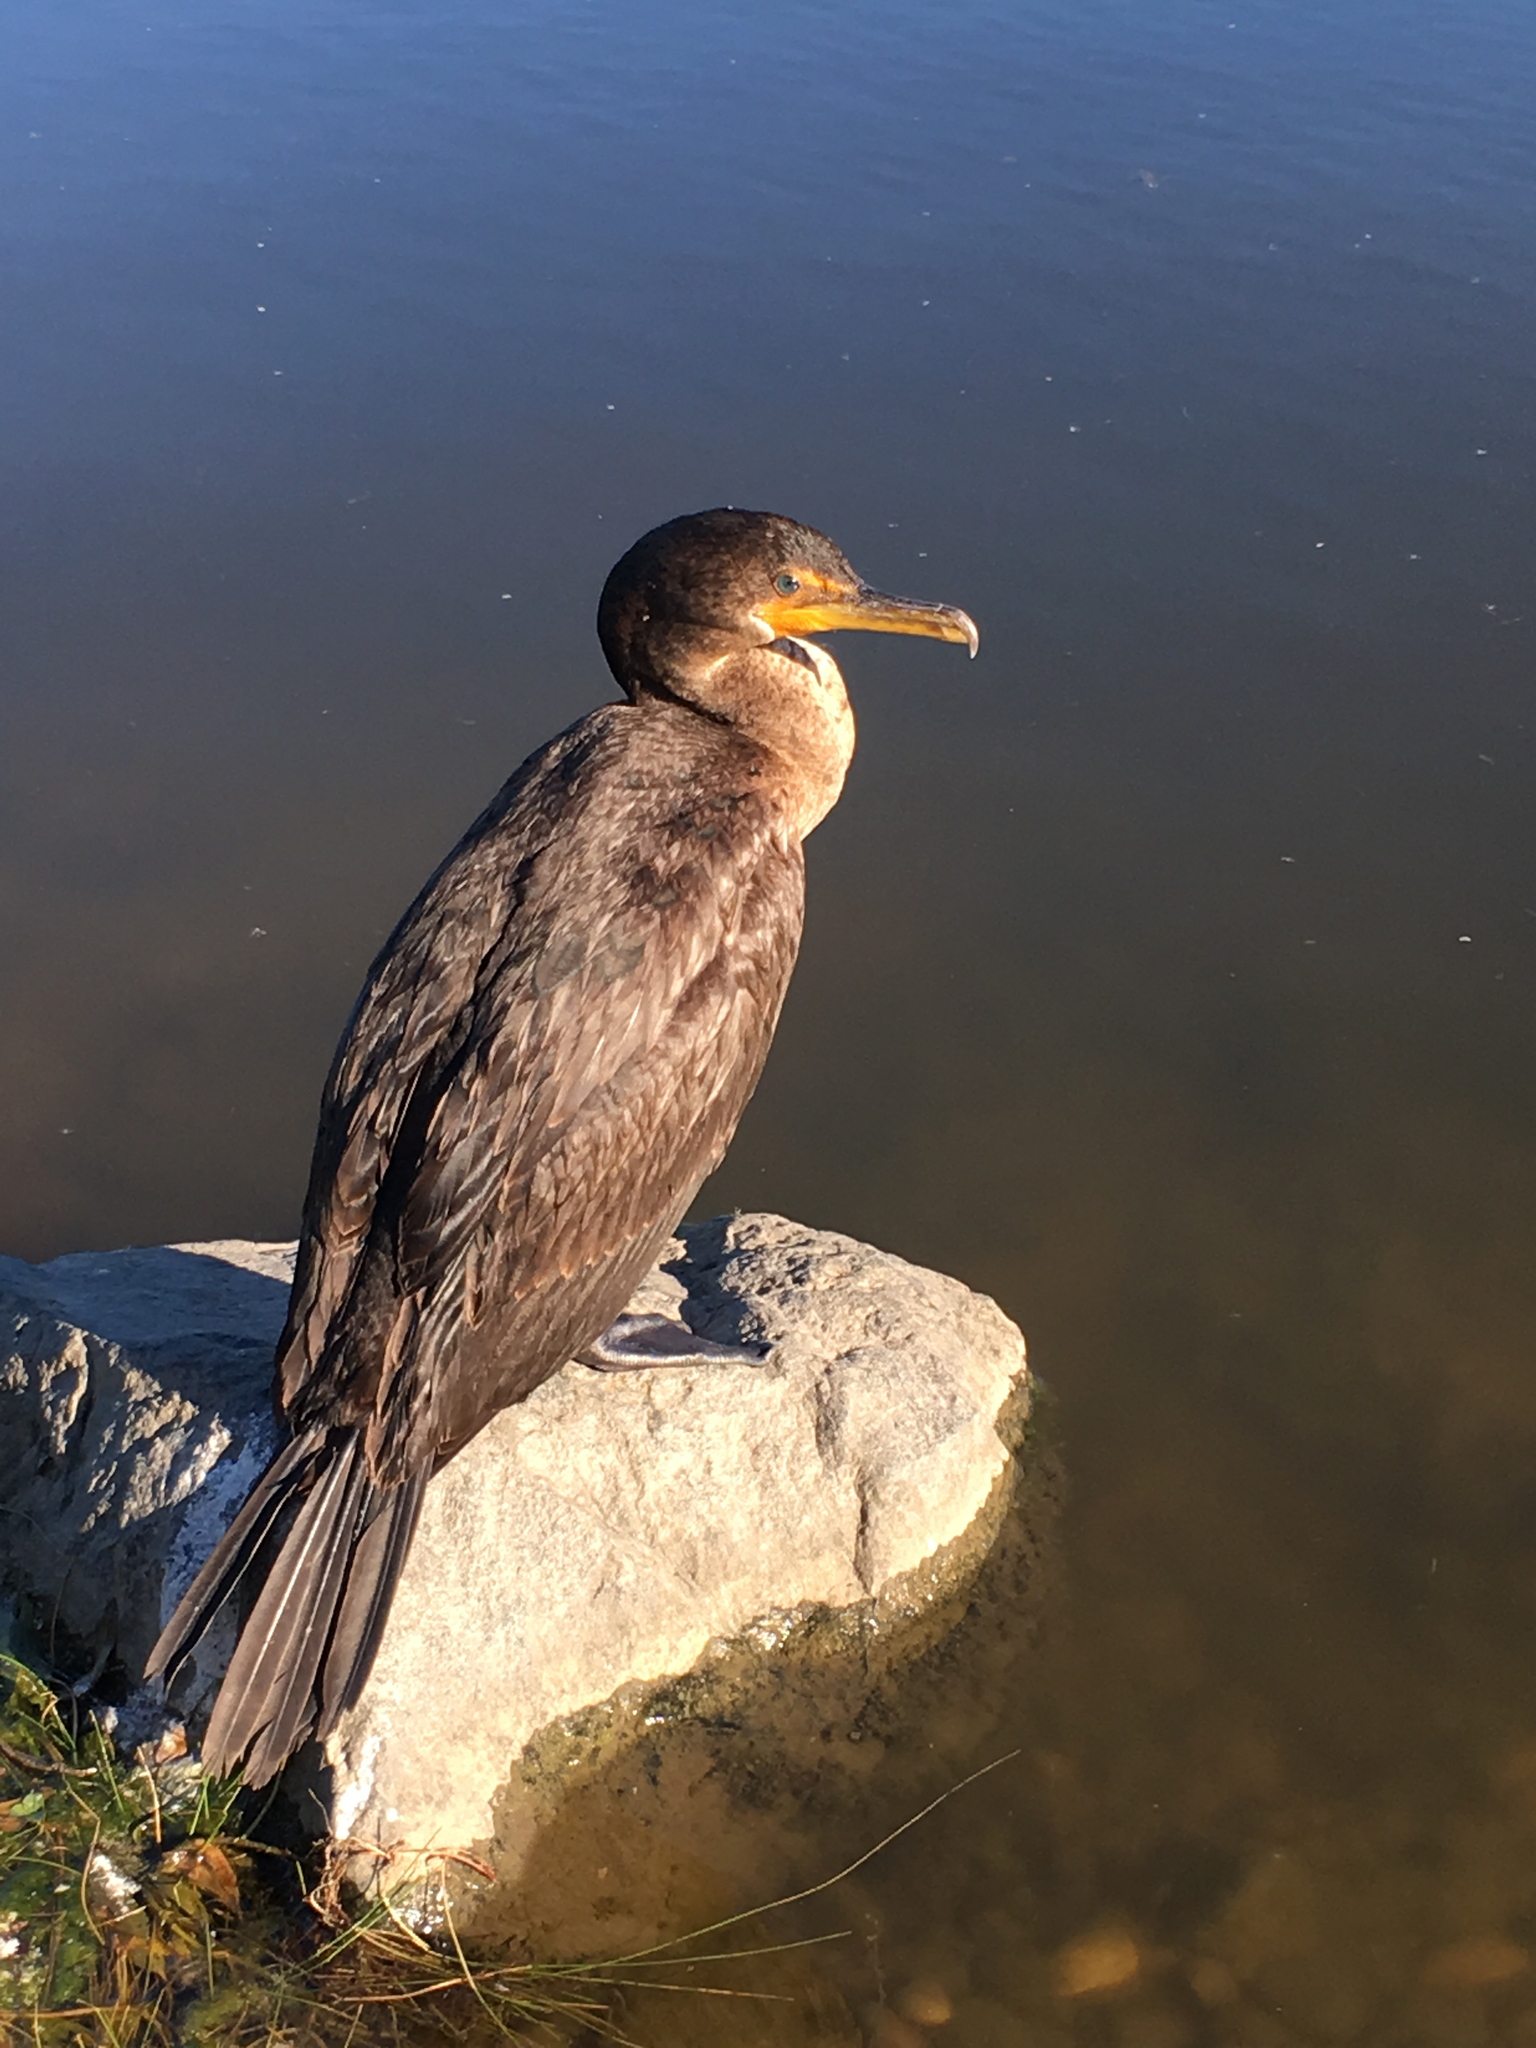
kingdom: Animalia
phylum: Chordata
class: Aves
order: Suliformes
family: Phalacrocoracidae
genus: Phalacrocorax
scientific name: Phalacrocorax auritus
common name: Double-crested cormorant
